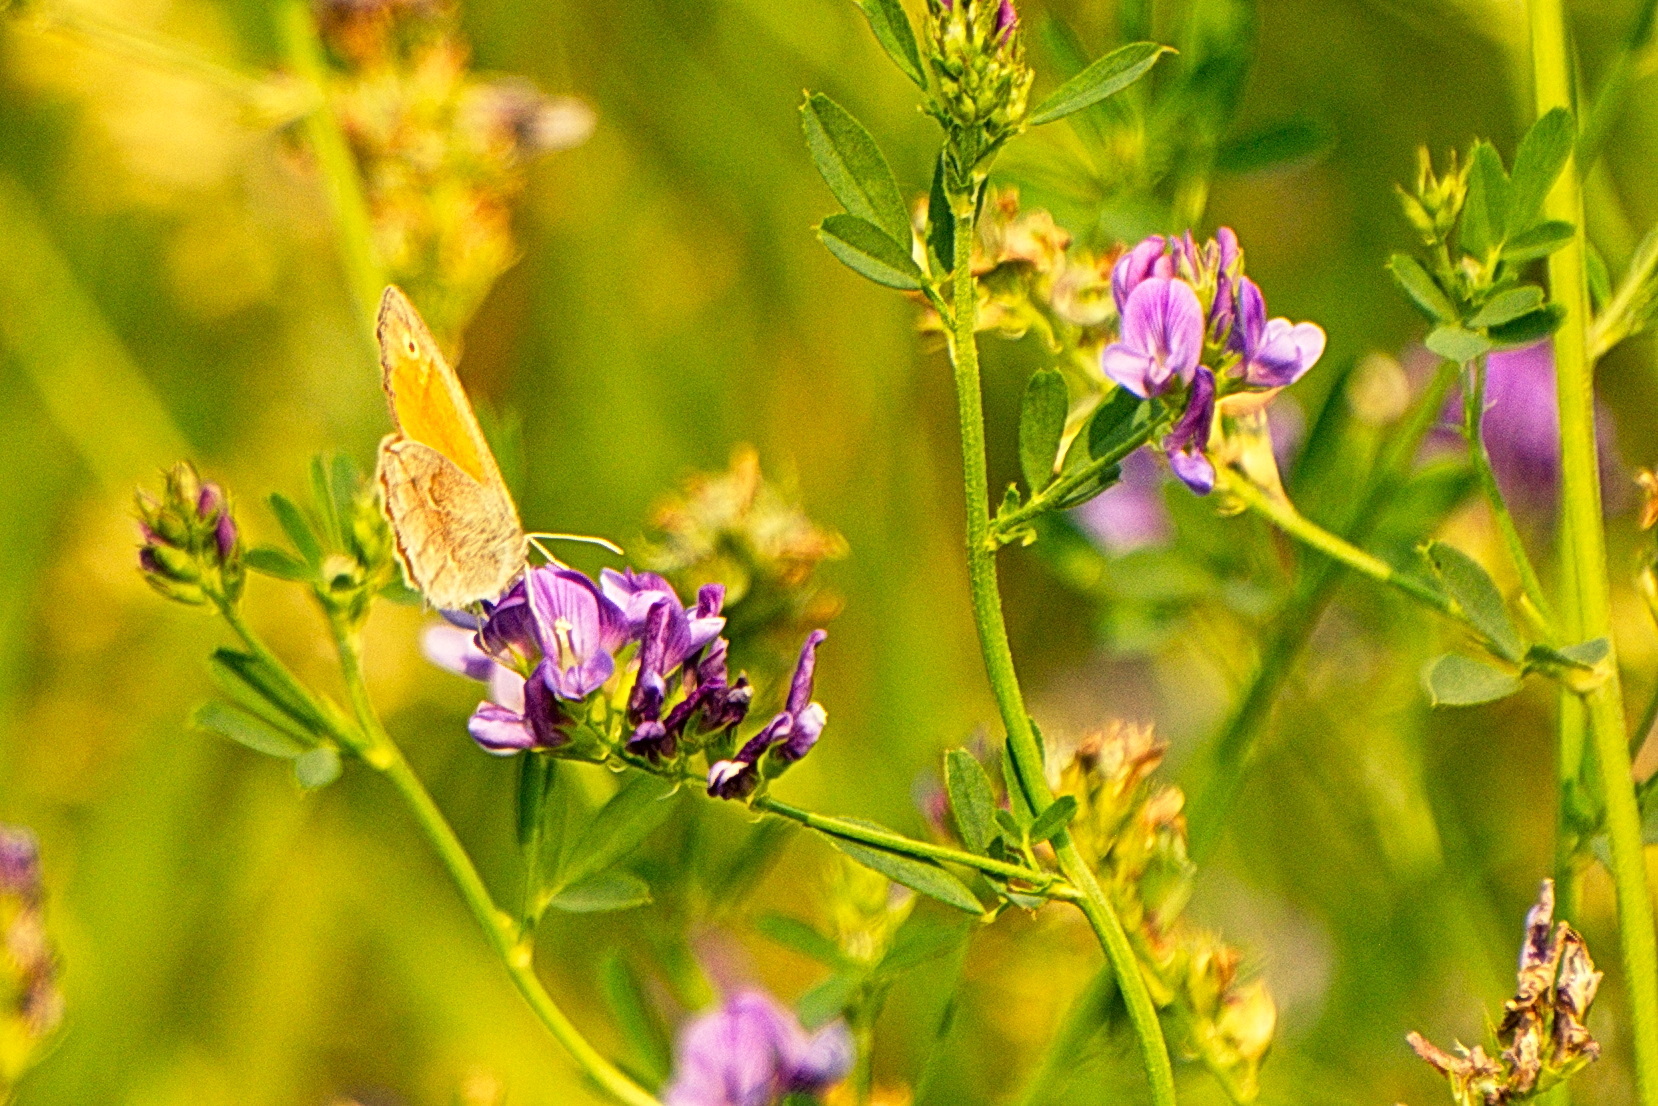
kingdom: Animalia
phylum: Arthropoda
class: Insecta
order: Lepidoptera
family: Nymphalidae
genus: Coenonympha
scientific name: Coenonympha california
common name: Common ringlet
